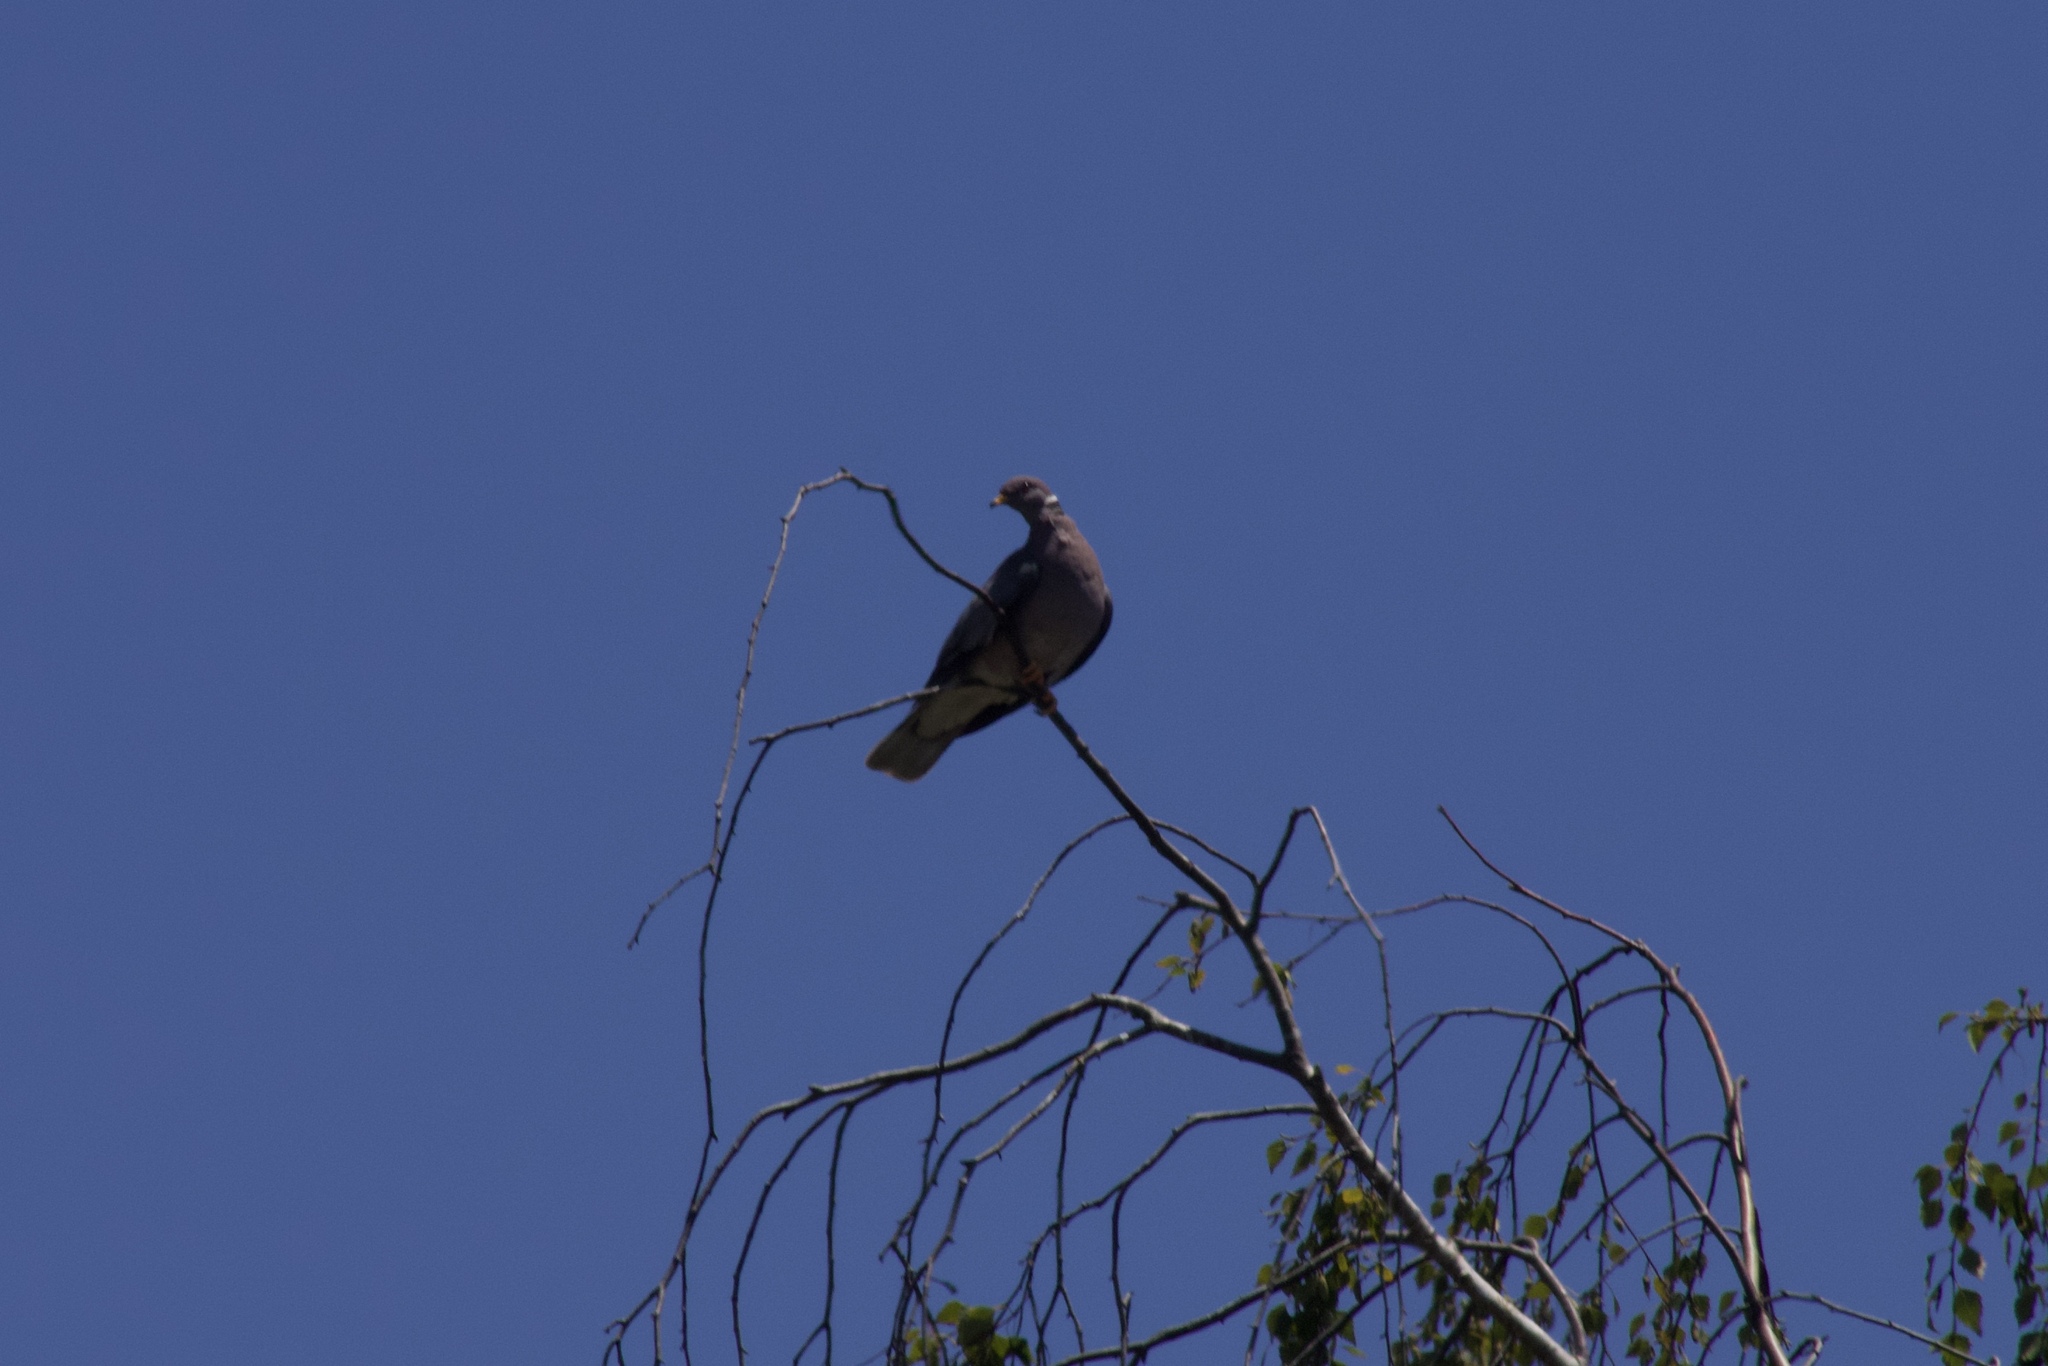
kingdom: Animalia
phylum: Chordata
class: Aves
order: Columbiformes
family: Columbidae
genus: Patagioenas
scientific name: Patagioenas fasciata
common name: Band-tailed pigeon
